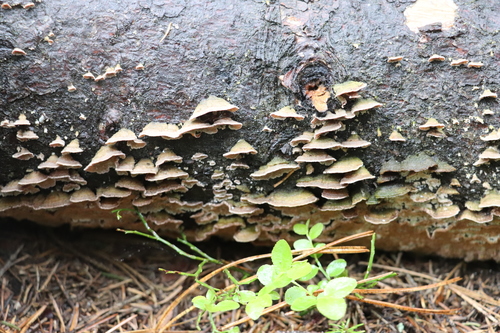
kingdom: Fungi
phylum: Basidiomycota
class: Agaricomycetes
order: Hymenochaetales
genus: Trichaptum
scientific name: Trichaptum fuscoviolaceum
